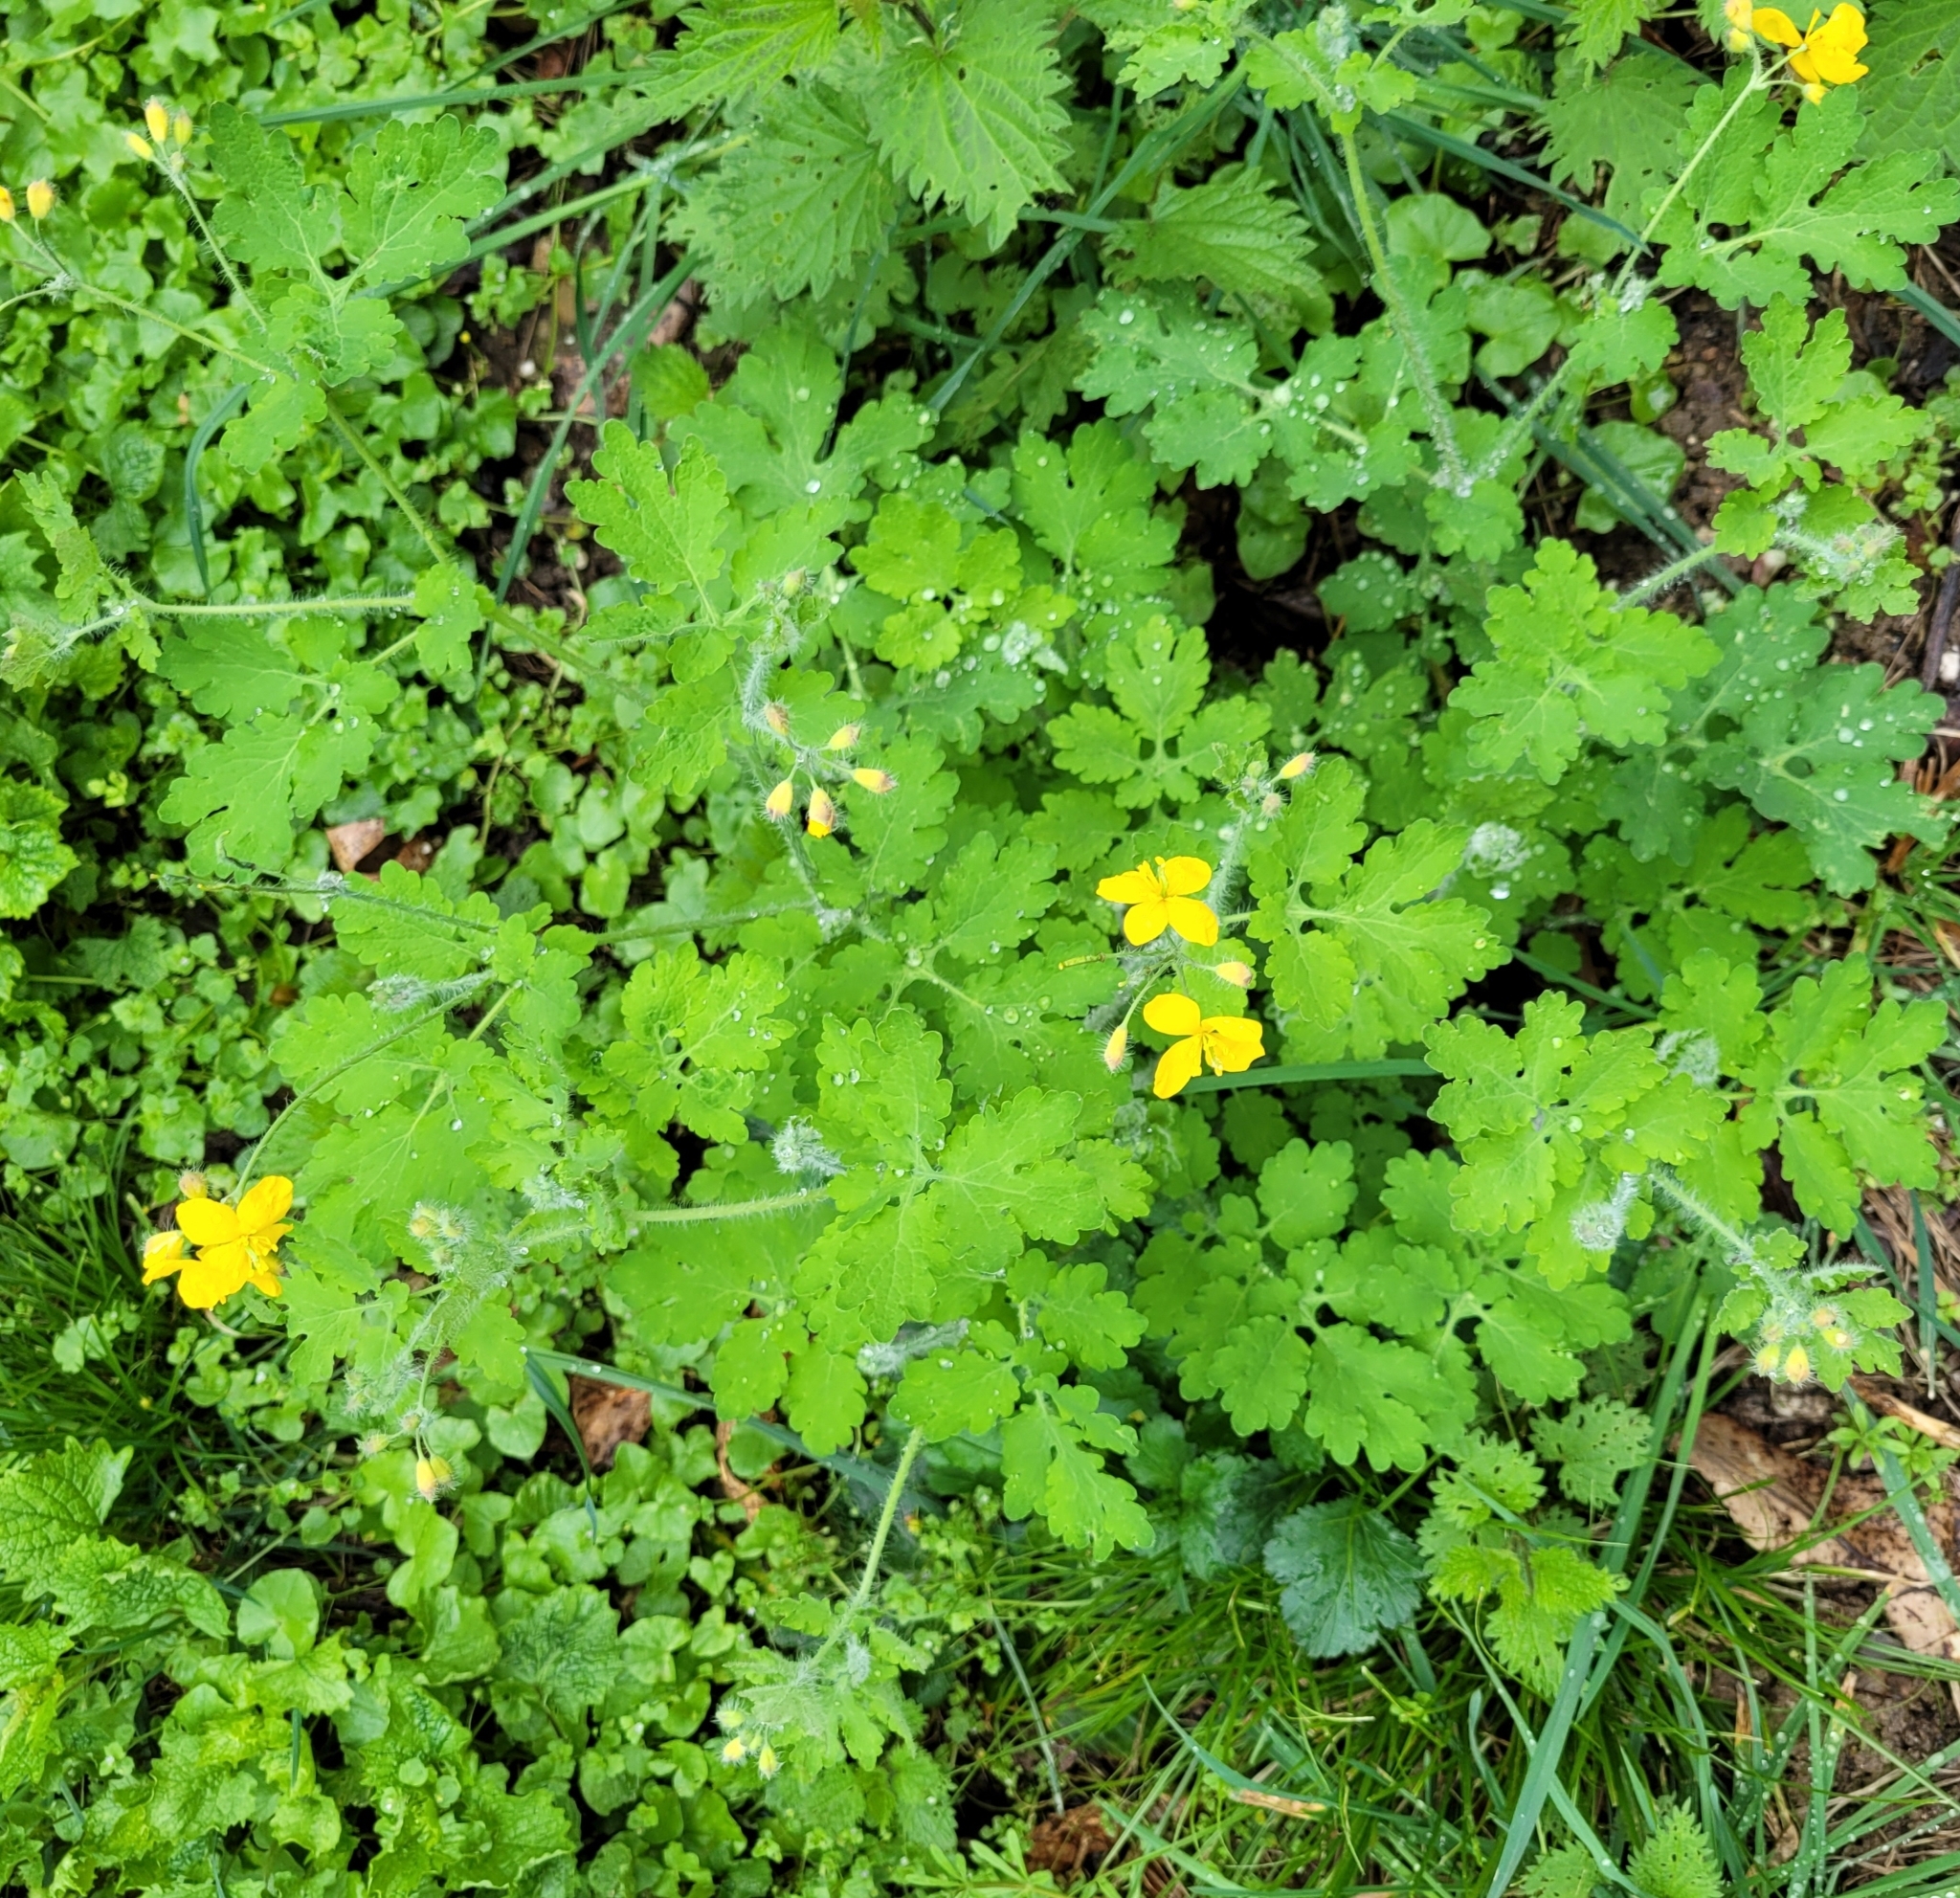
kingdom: Plantae
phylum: Tracheophyta
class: Magnoliopsida
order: Ranunculales
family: Papaveraceae
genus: Chelidonium
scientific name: Chelidonium majus
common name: Greater celandine
